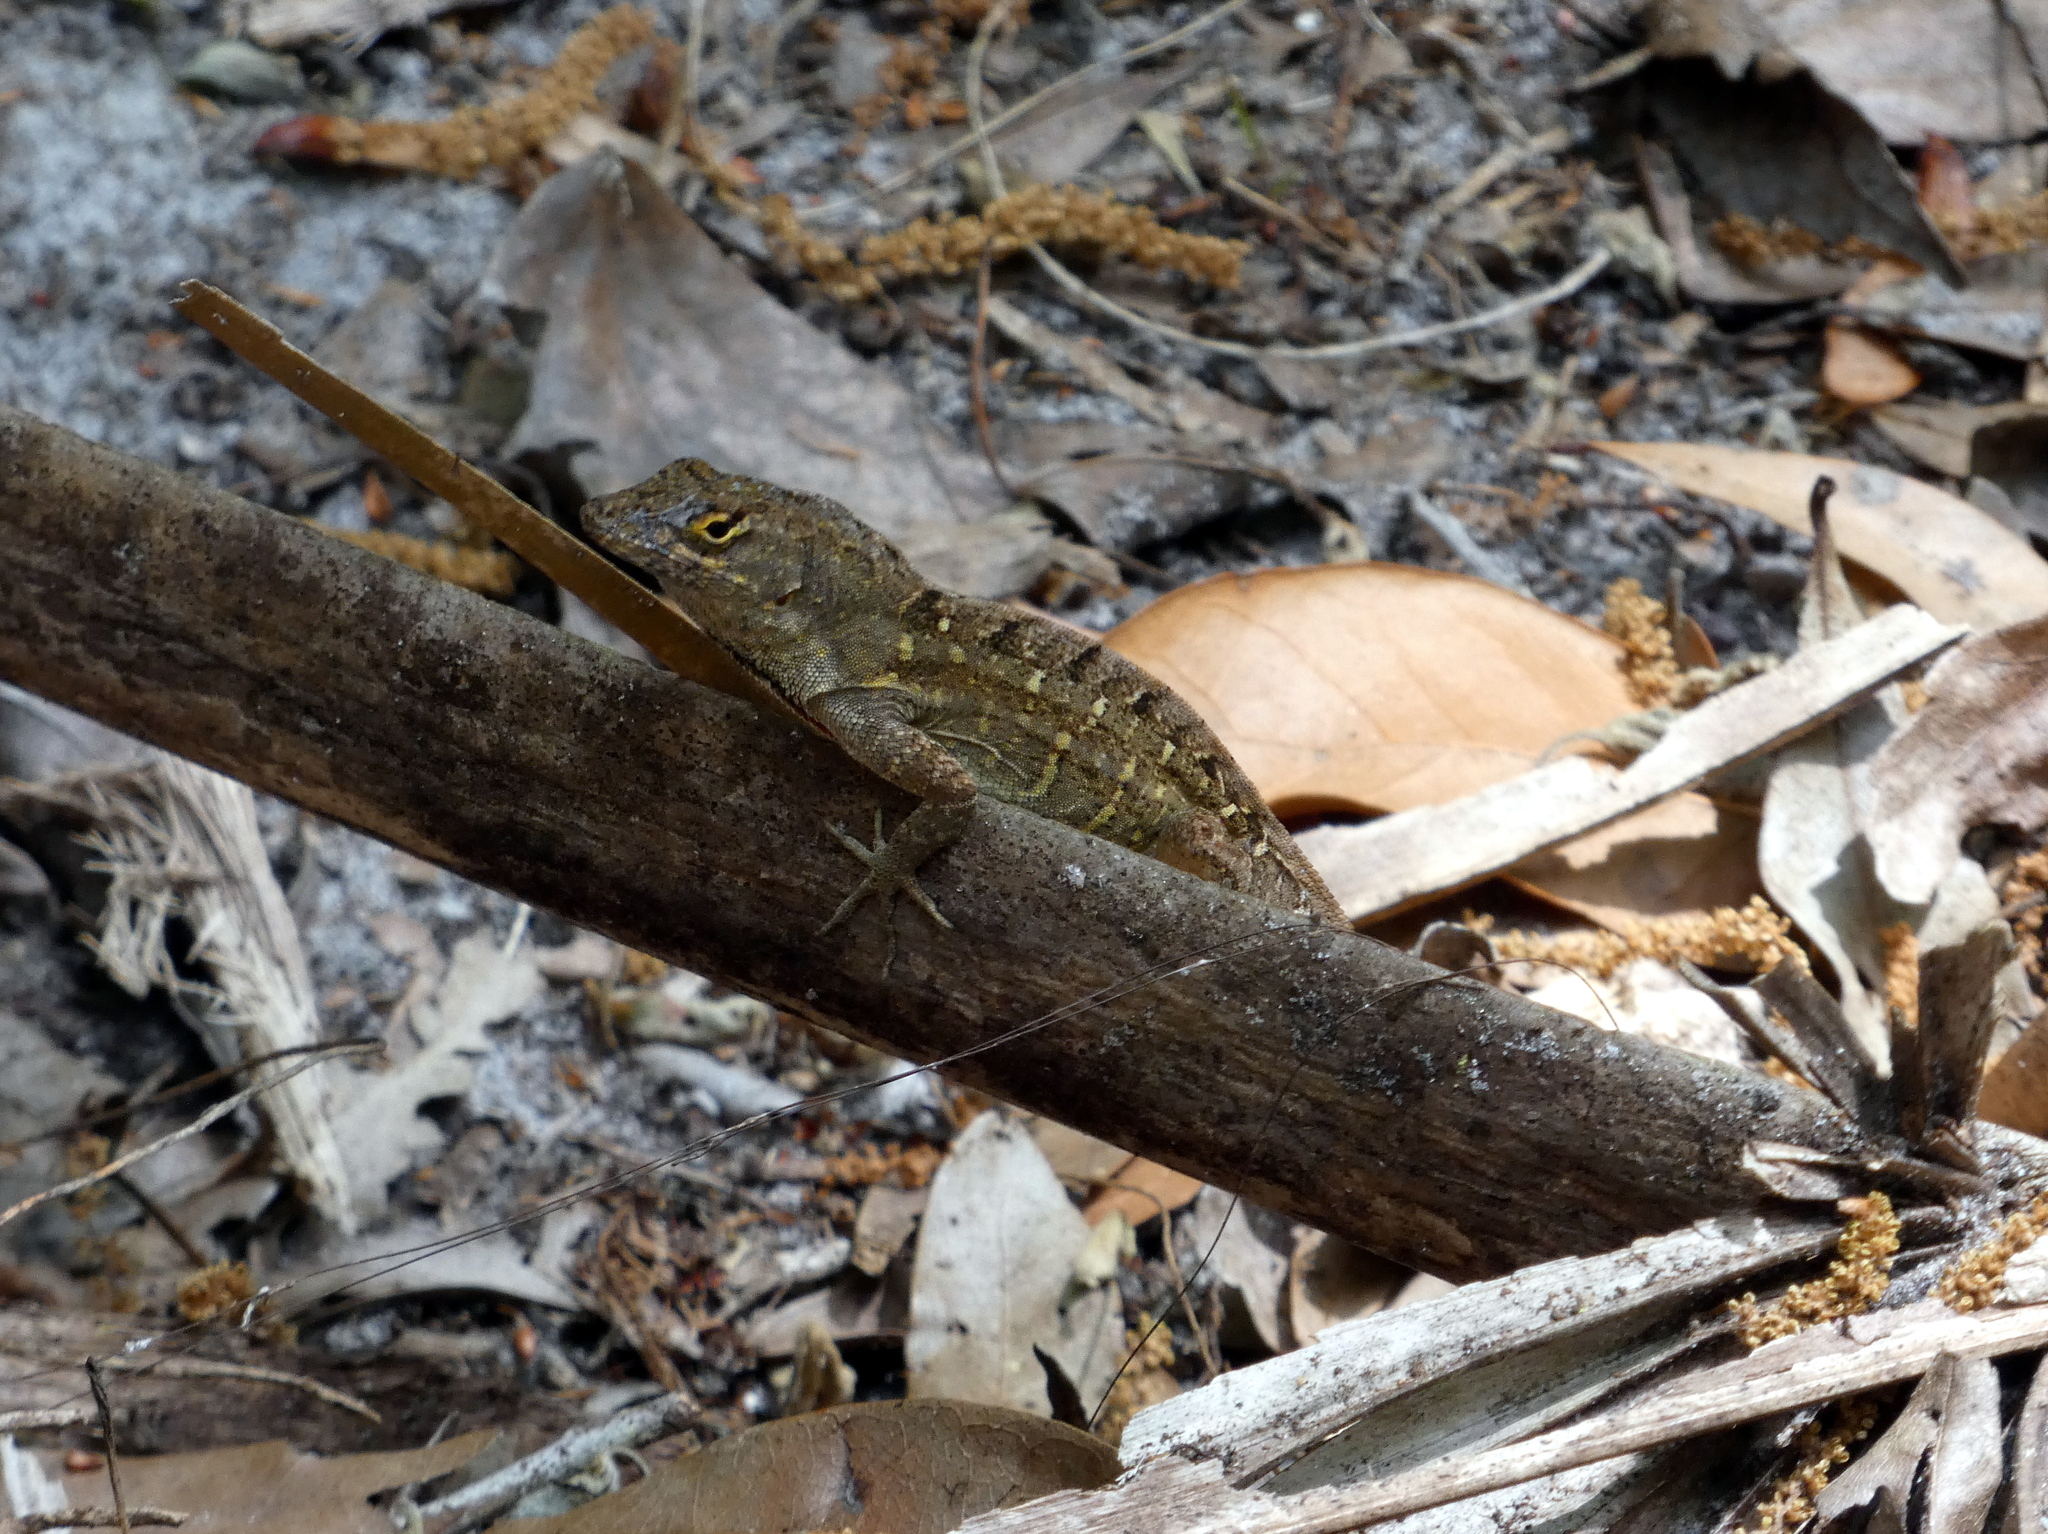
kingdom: Animalia
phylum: Chordata
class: Squamata
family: Dactyloidae
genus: Anolis
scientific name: Anolis sagrei
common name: Brown anole
